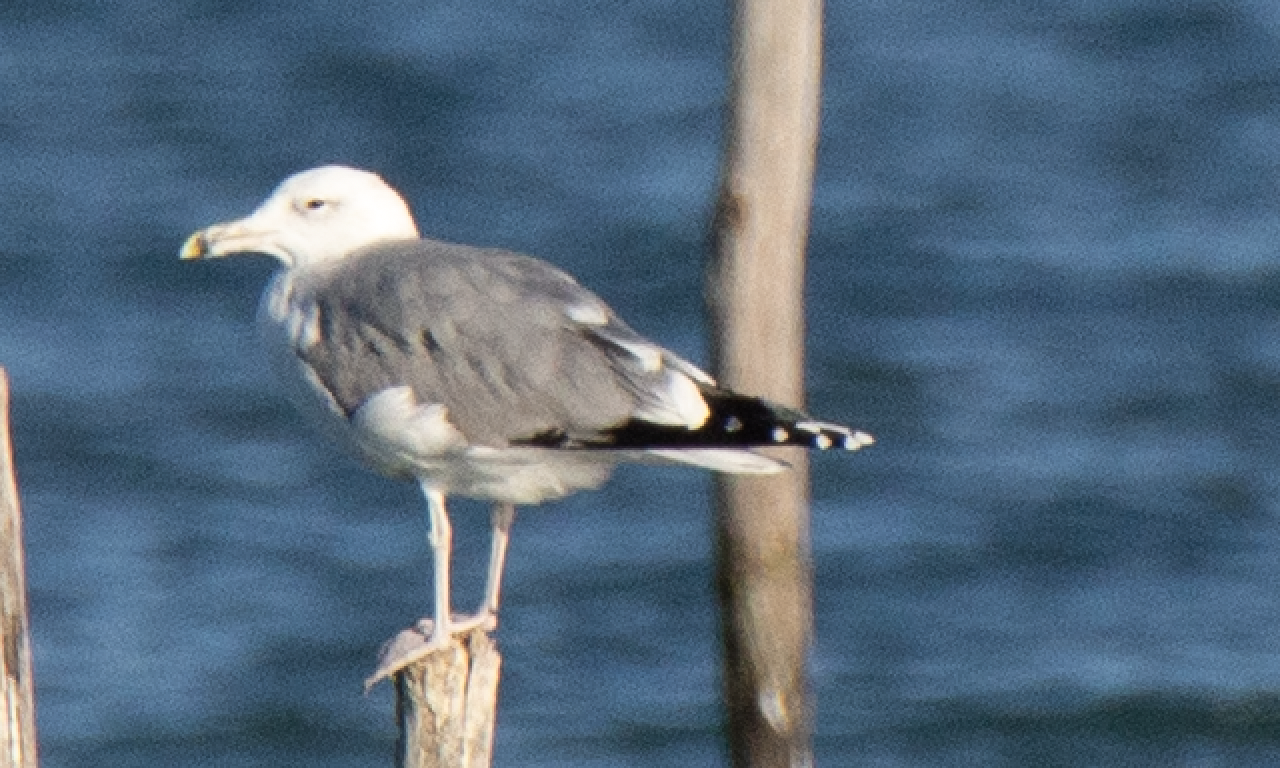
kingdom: Animalia
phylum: Chordata
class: Aves
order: Charadriiformes
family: Laridae
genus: Larus
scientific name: Larus cachinnans
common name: Caspian gull
